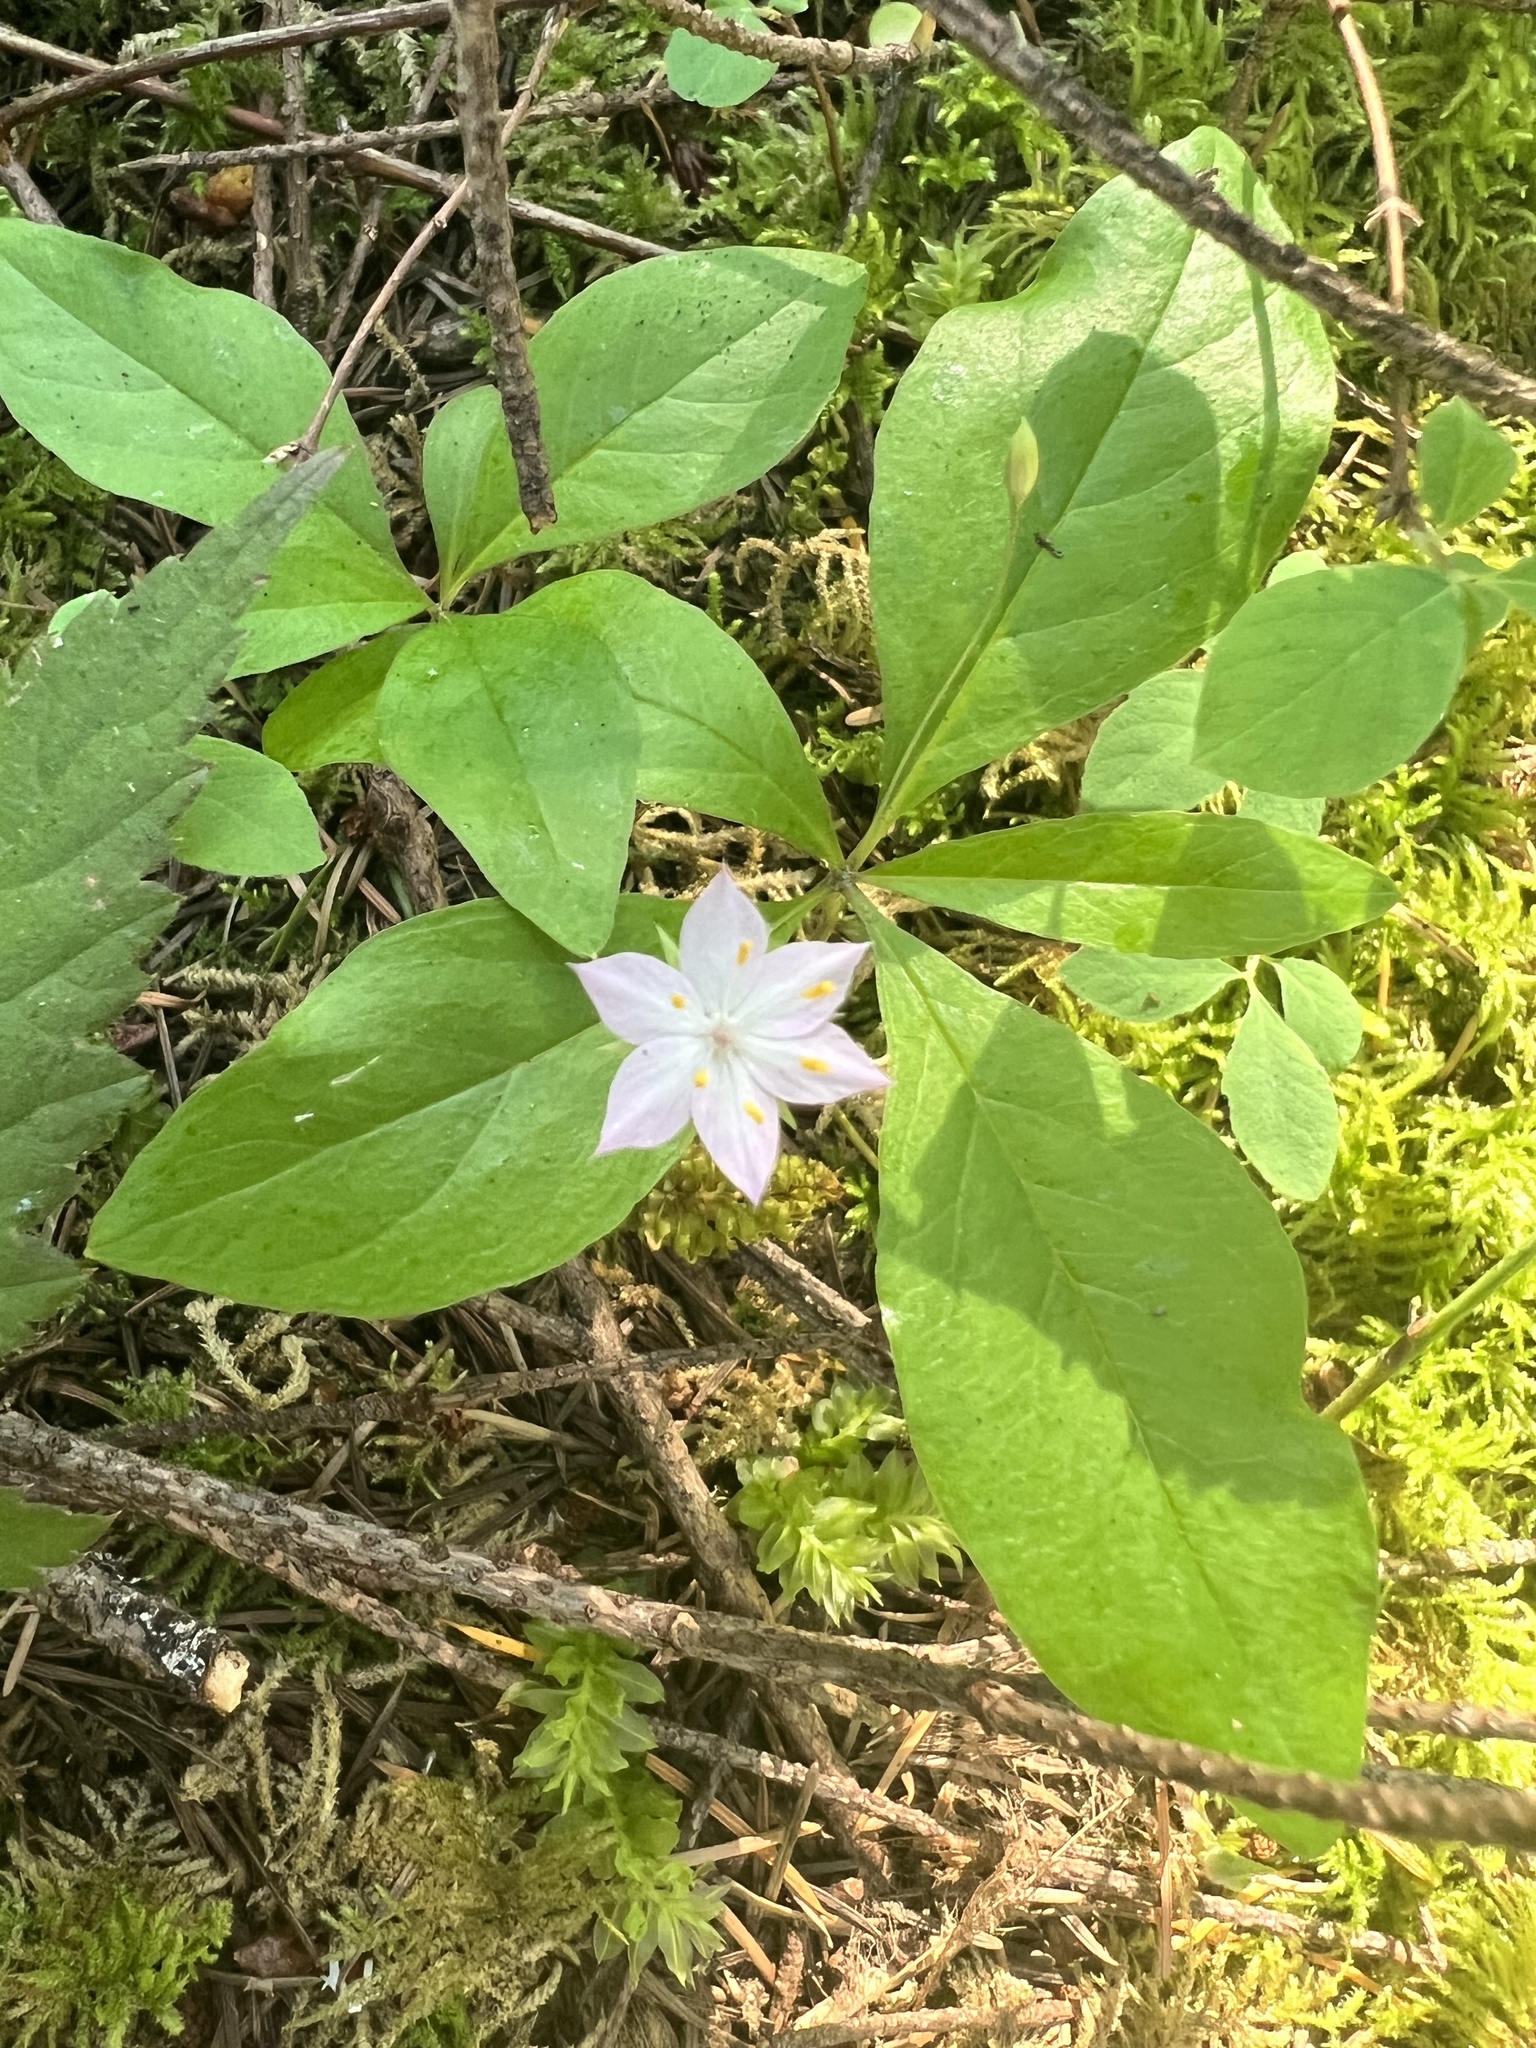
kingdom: Plantae
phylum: Tracheophyta
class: Magnoliopsida
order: Ericales
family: Primulaceae
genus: Lysimachia
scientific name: Lysimachia latifolia
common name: Pacific starflower
